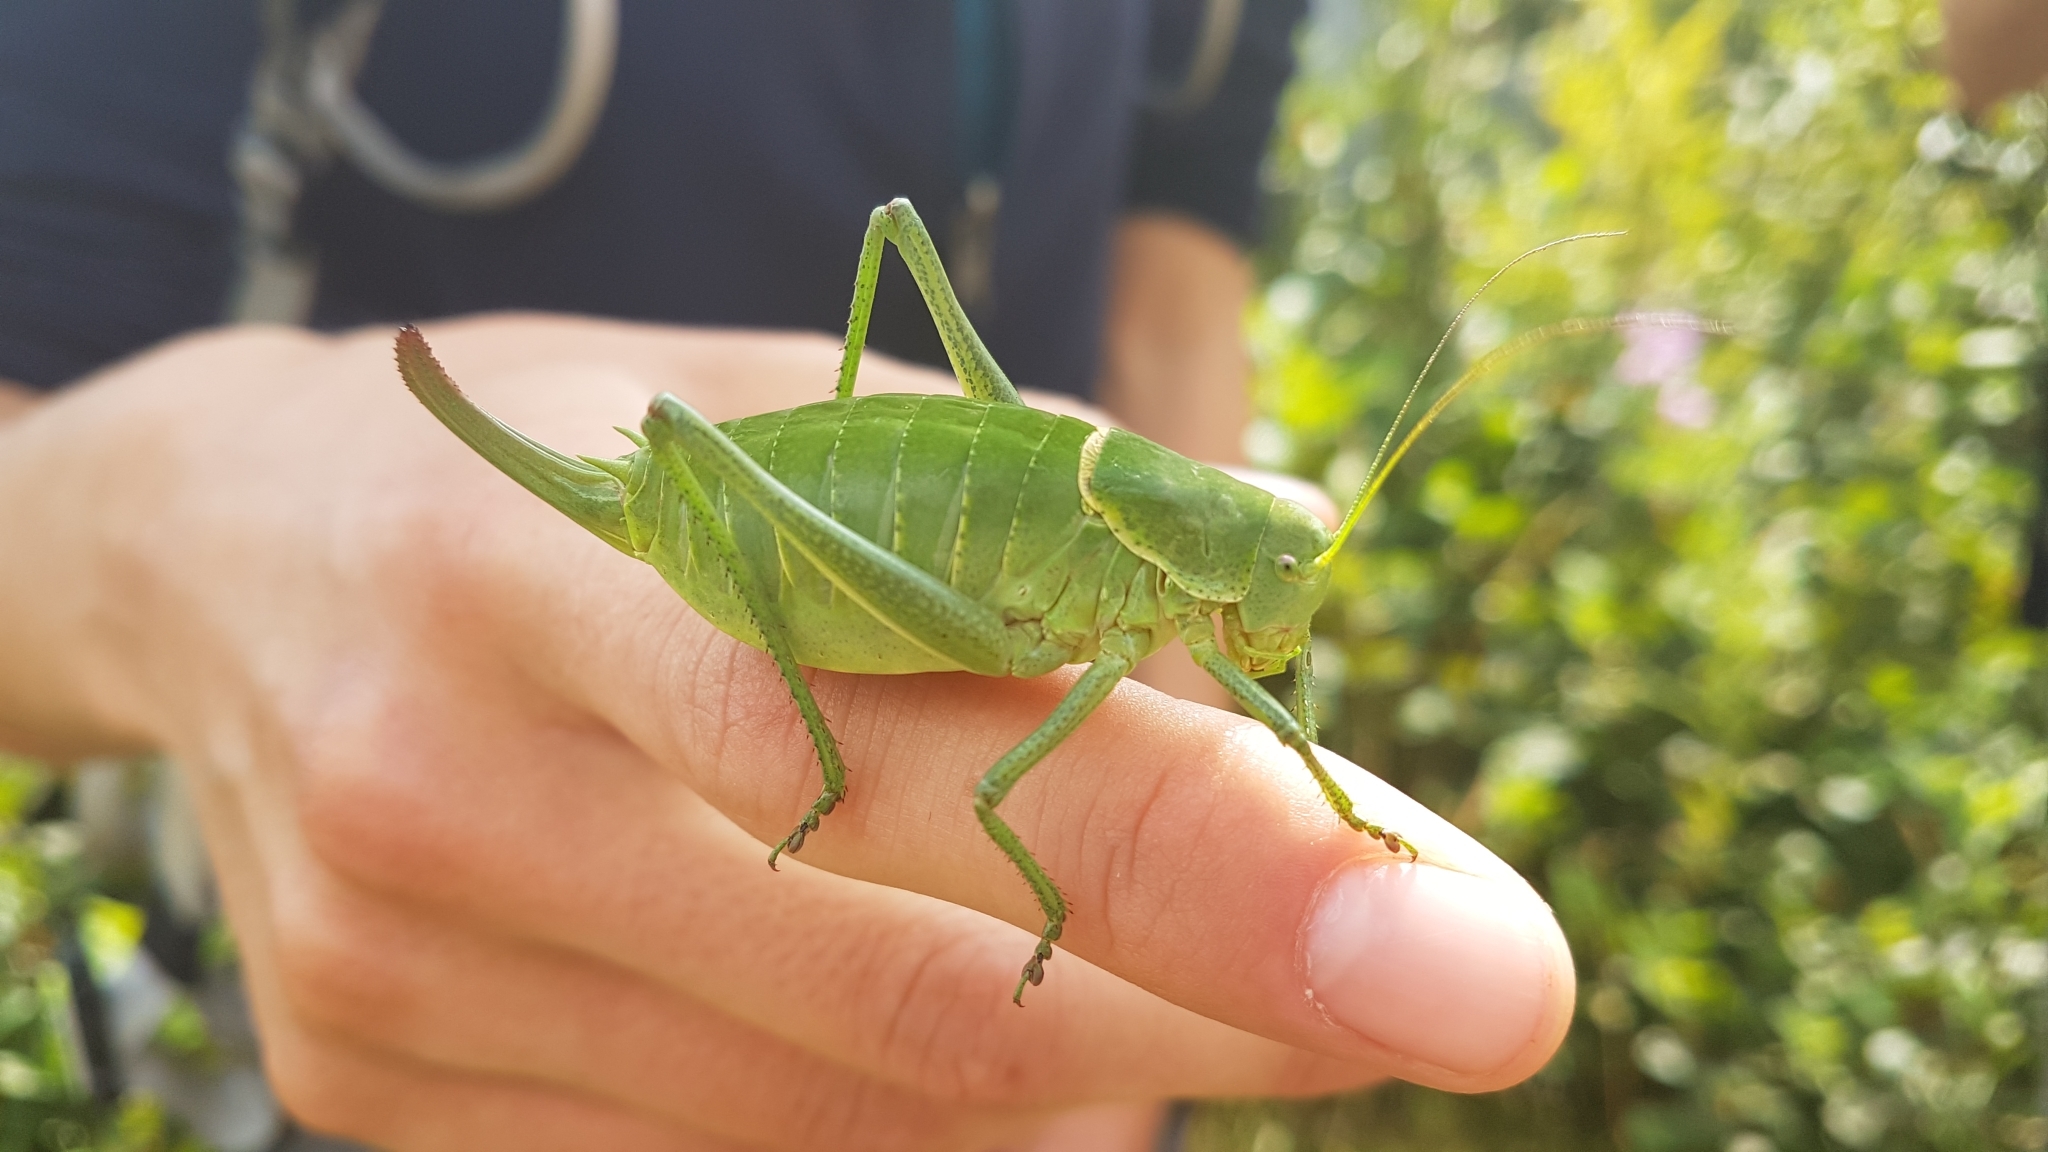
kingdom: Animalia
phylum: Arthropoda
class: Insecta
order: Orthoptera
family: Tettigoniidae
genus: Polysarcus
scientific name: Polysarcus denticauda
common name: Large saw-tailed bush-cricket
